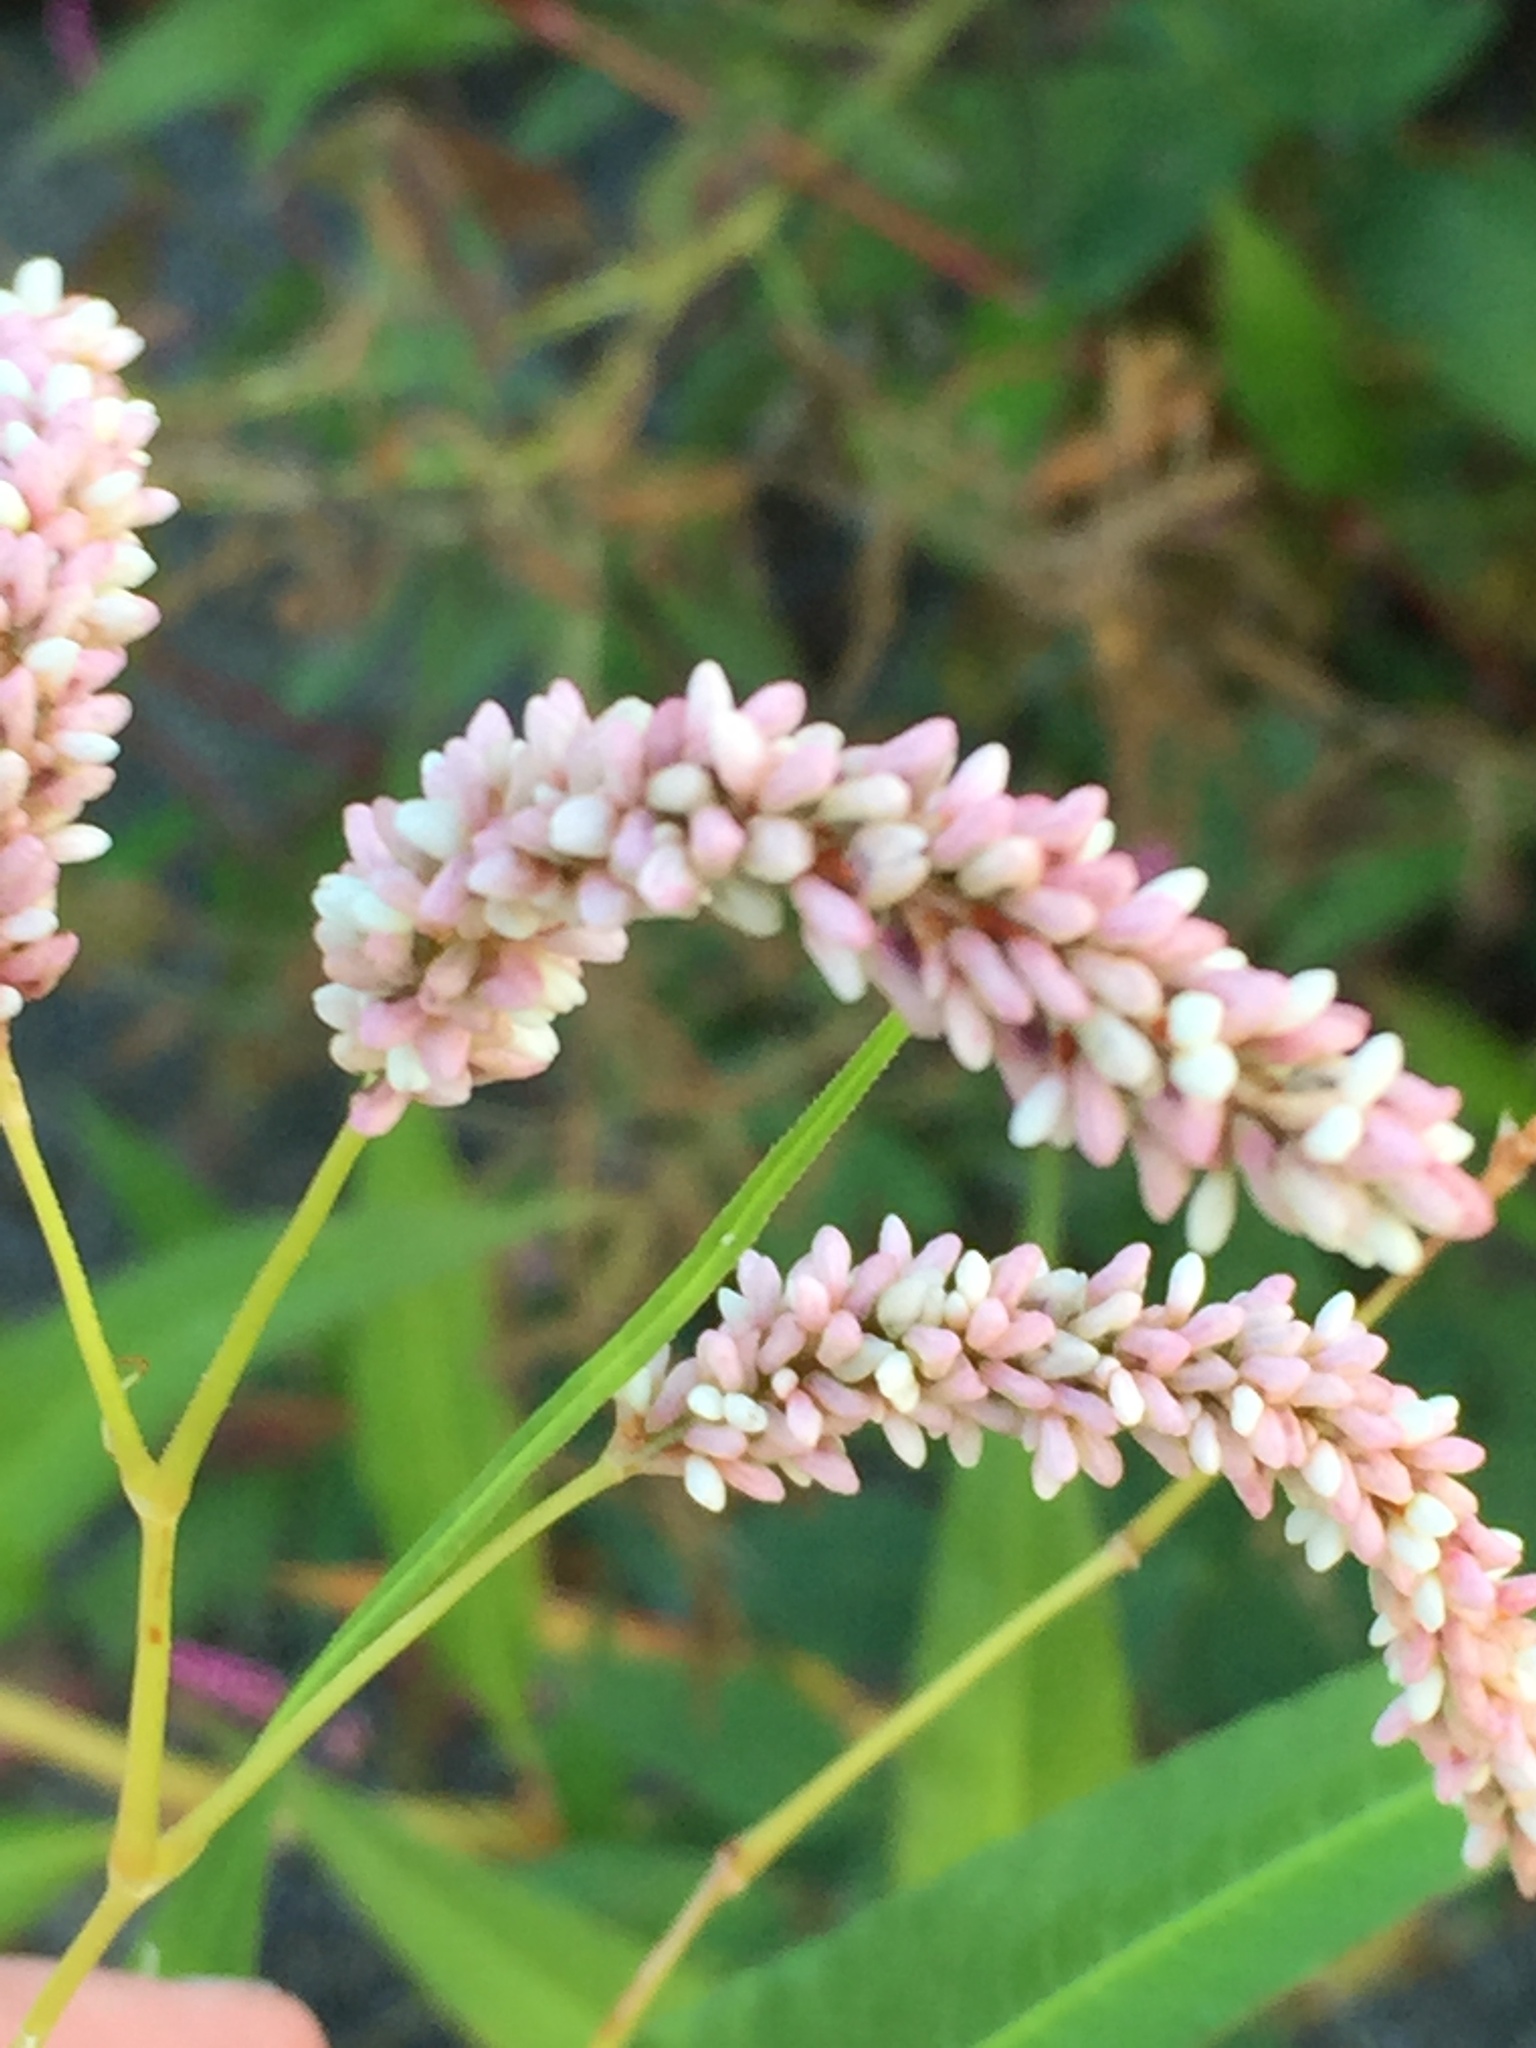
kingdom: Plantae
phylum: Tracheophyta
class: Magnoliopsida
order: Caryophyllales
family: Polygonaceae
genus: Persicaria
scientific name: Persicaria lapathifolia
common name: Curlytop knotweed
